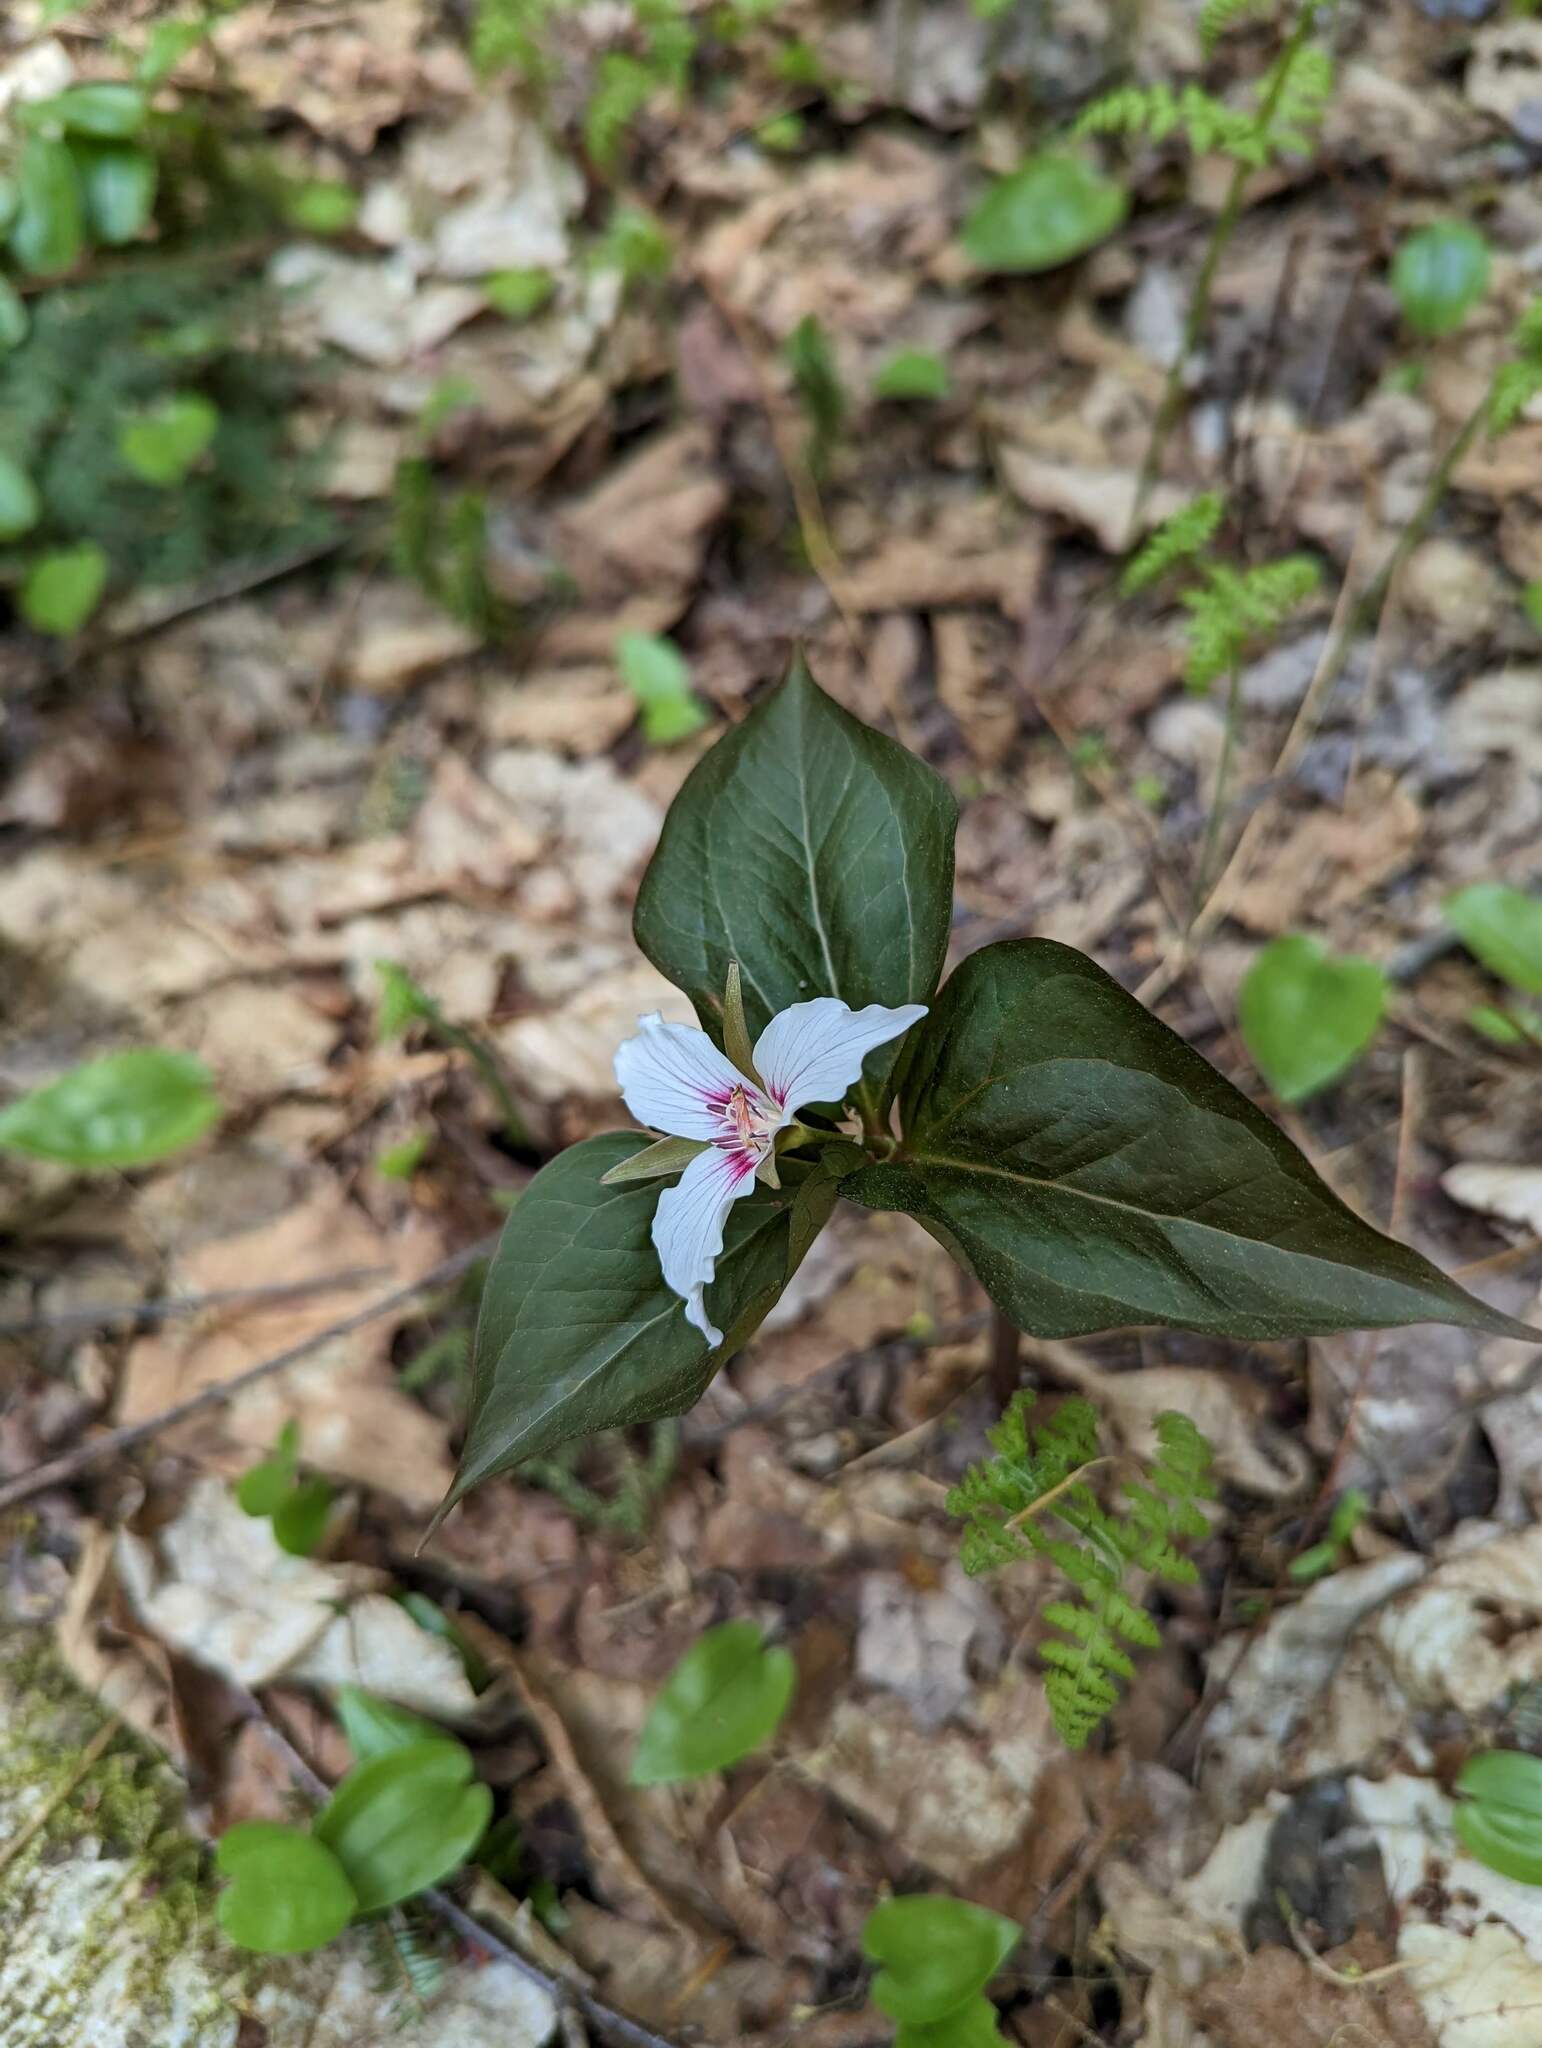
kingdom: Plantae
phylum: Tracheophyta
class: Liliopsida
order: Liliales
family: Melanthiaceae
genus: Trillium
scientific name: Trillium undulatum
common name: Paint trillium
